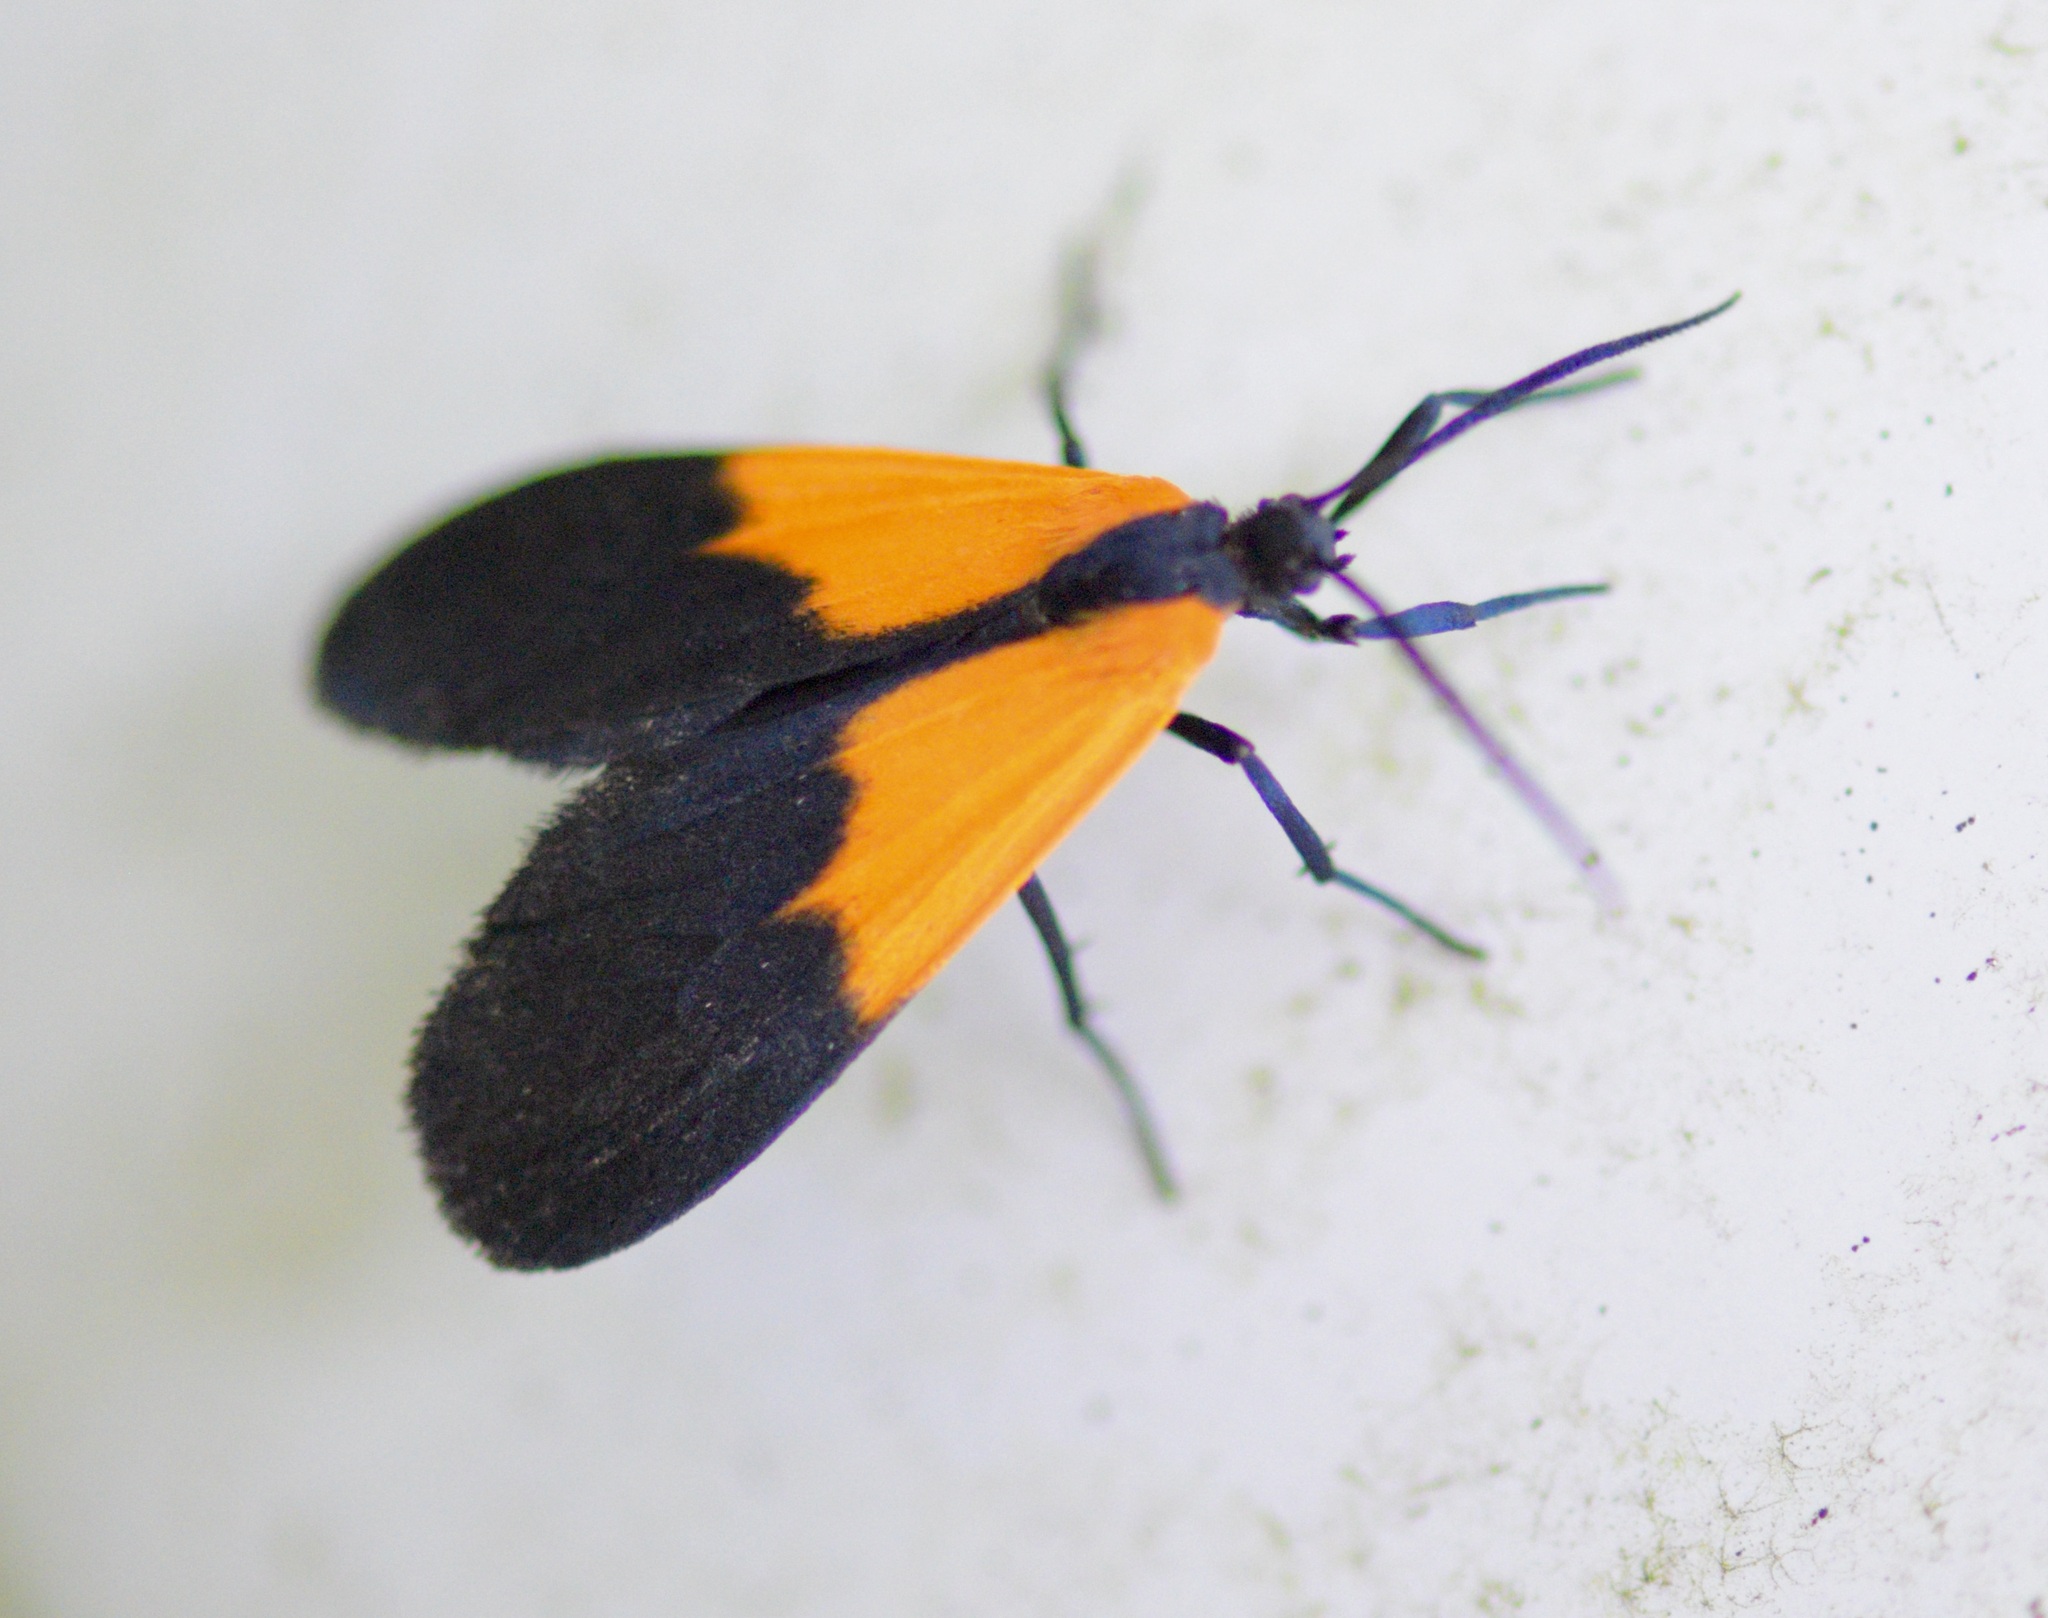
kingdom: Animalia
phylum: Arthropoda
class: Insecta
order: Lepidoptera
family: Erebidae
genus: Lycomorpha
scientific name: Lycomorpha pholus
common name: Black-and-yellow lichen moth
